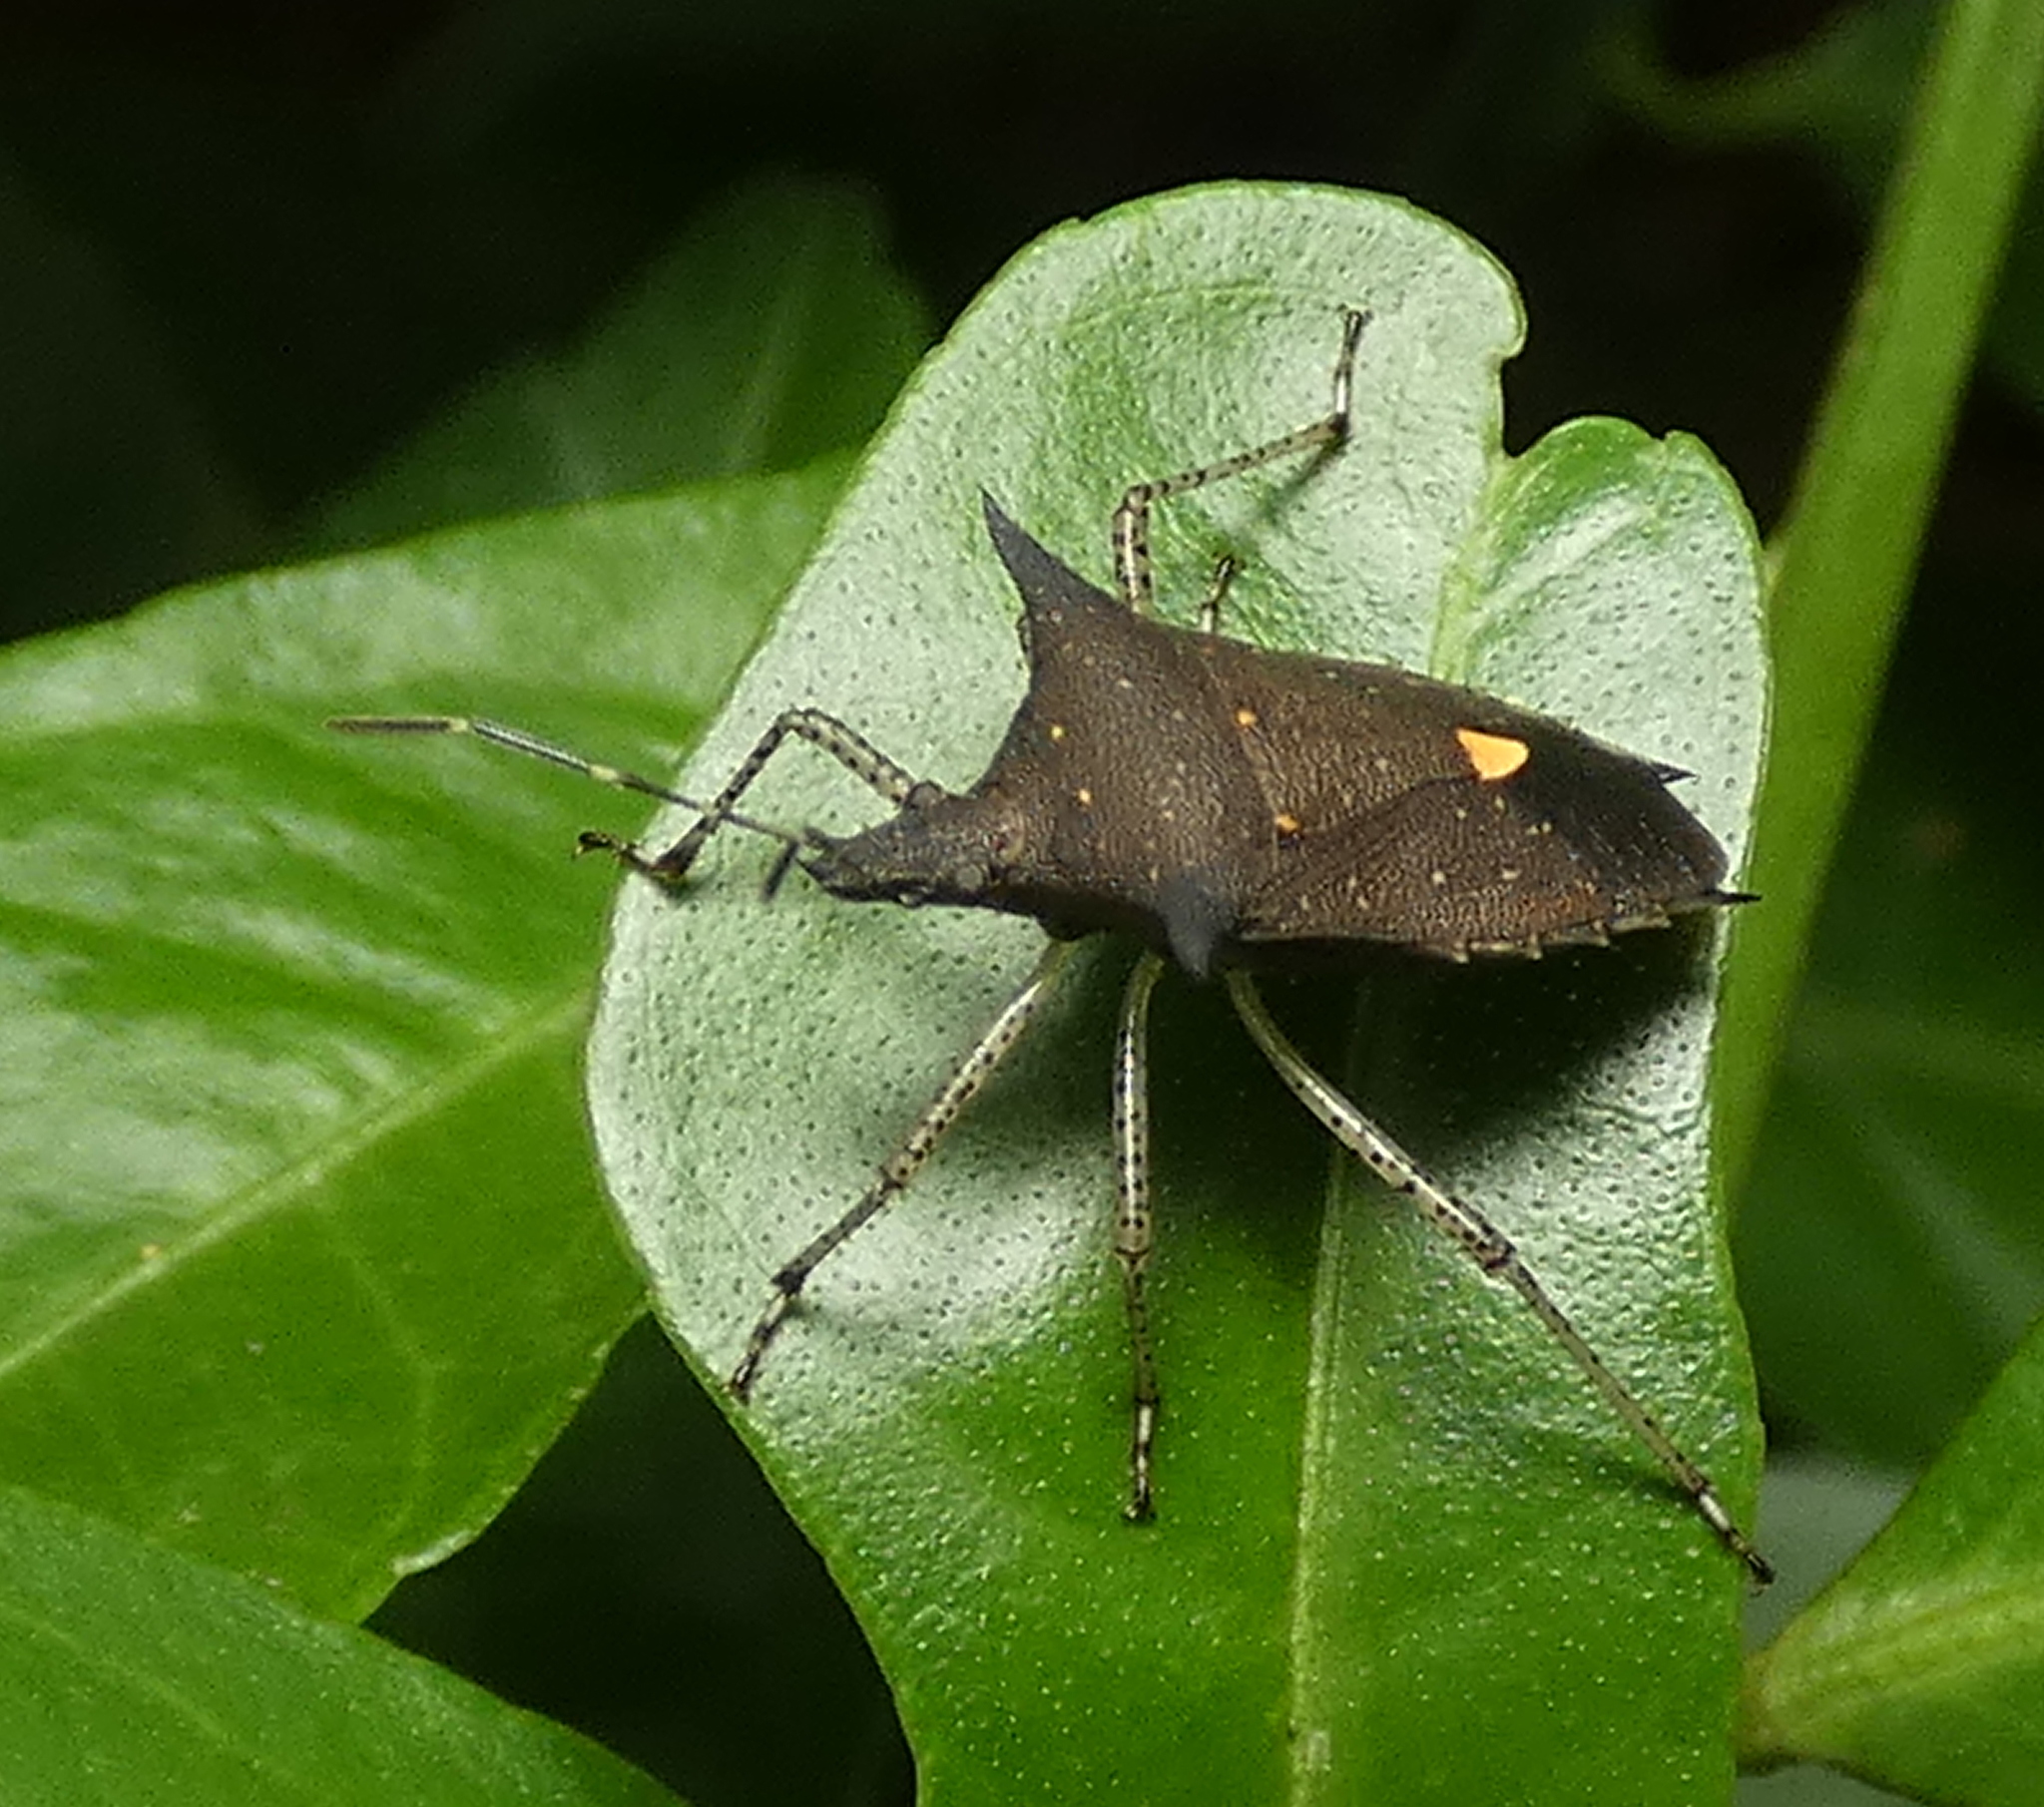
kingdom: Animalia
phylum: Arthropoda
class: Insecta
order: Hemiptera
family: Pentatomidae
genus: Proxys
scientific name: Proxys albopunctulatus
